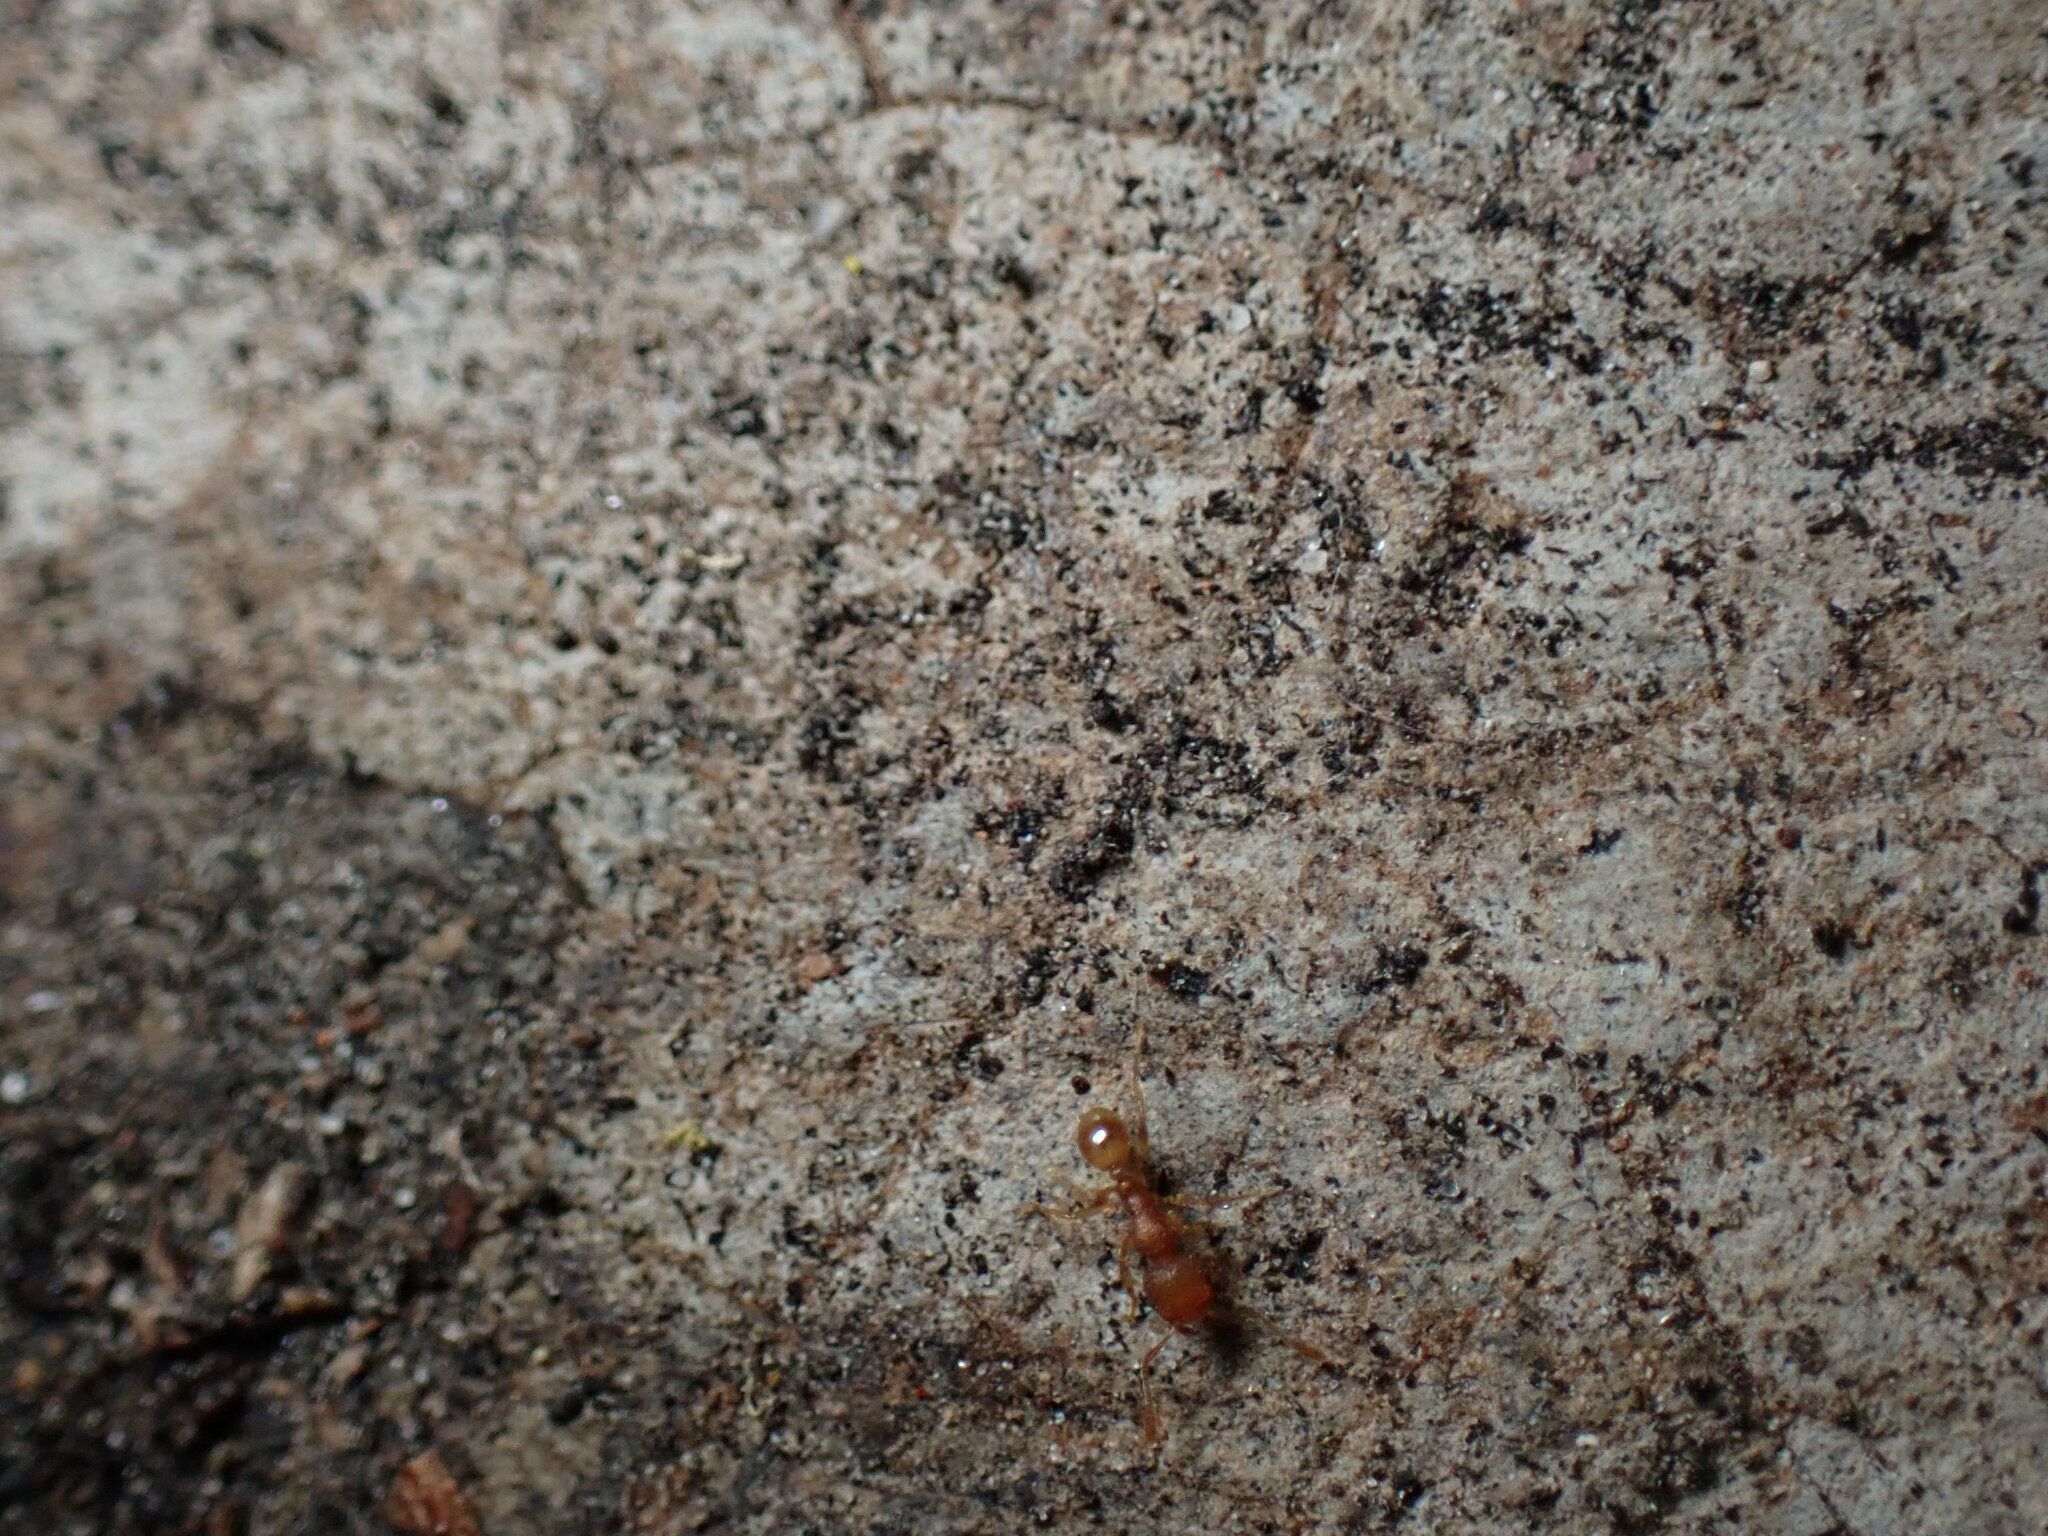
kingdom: Animalia
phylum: Arthropoda
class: Insecta
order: Hymenoptera
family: Formicidae
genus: Tetramorium
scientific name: Tetramorium bicarinatum
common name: Guinea ant
